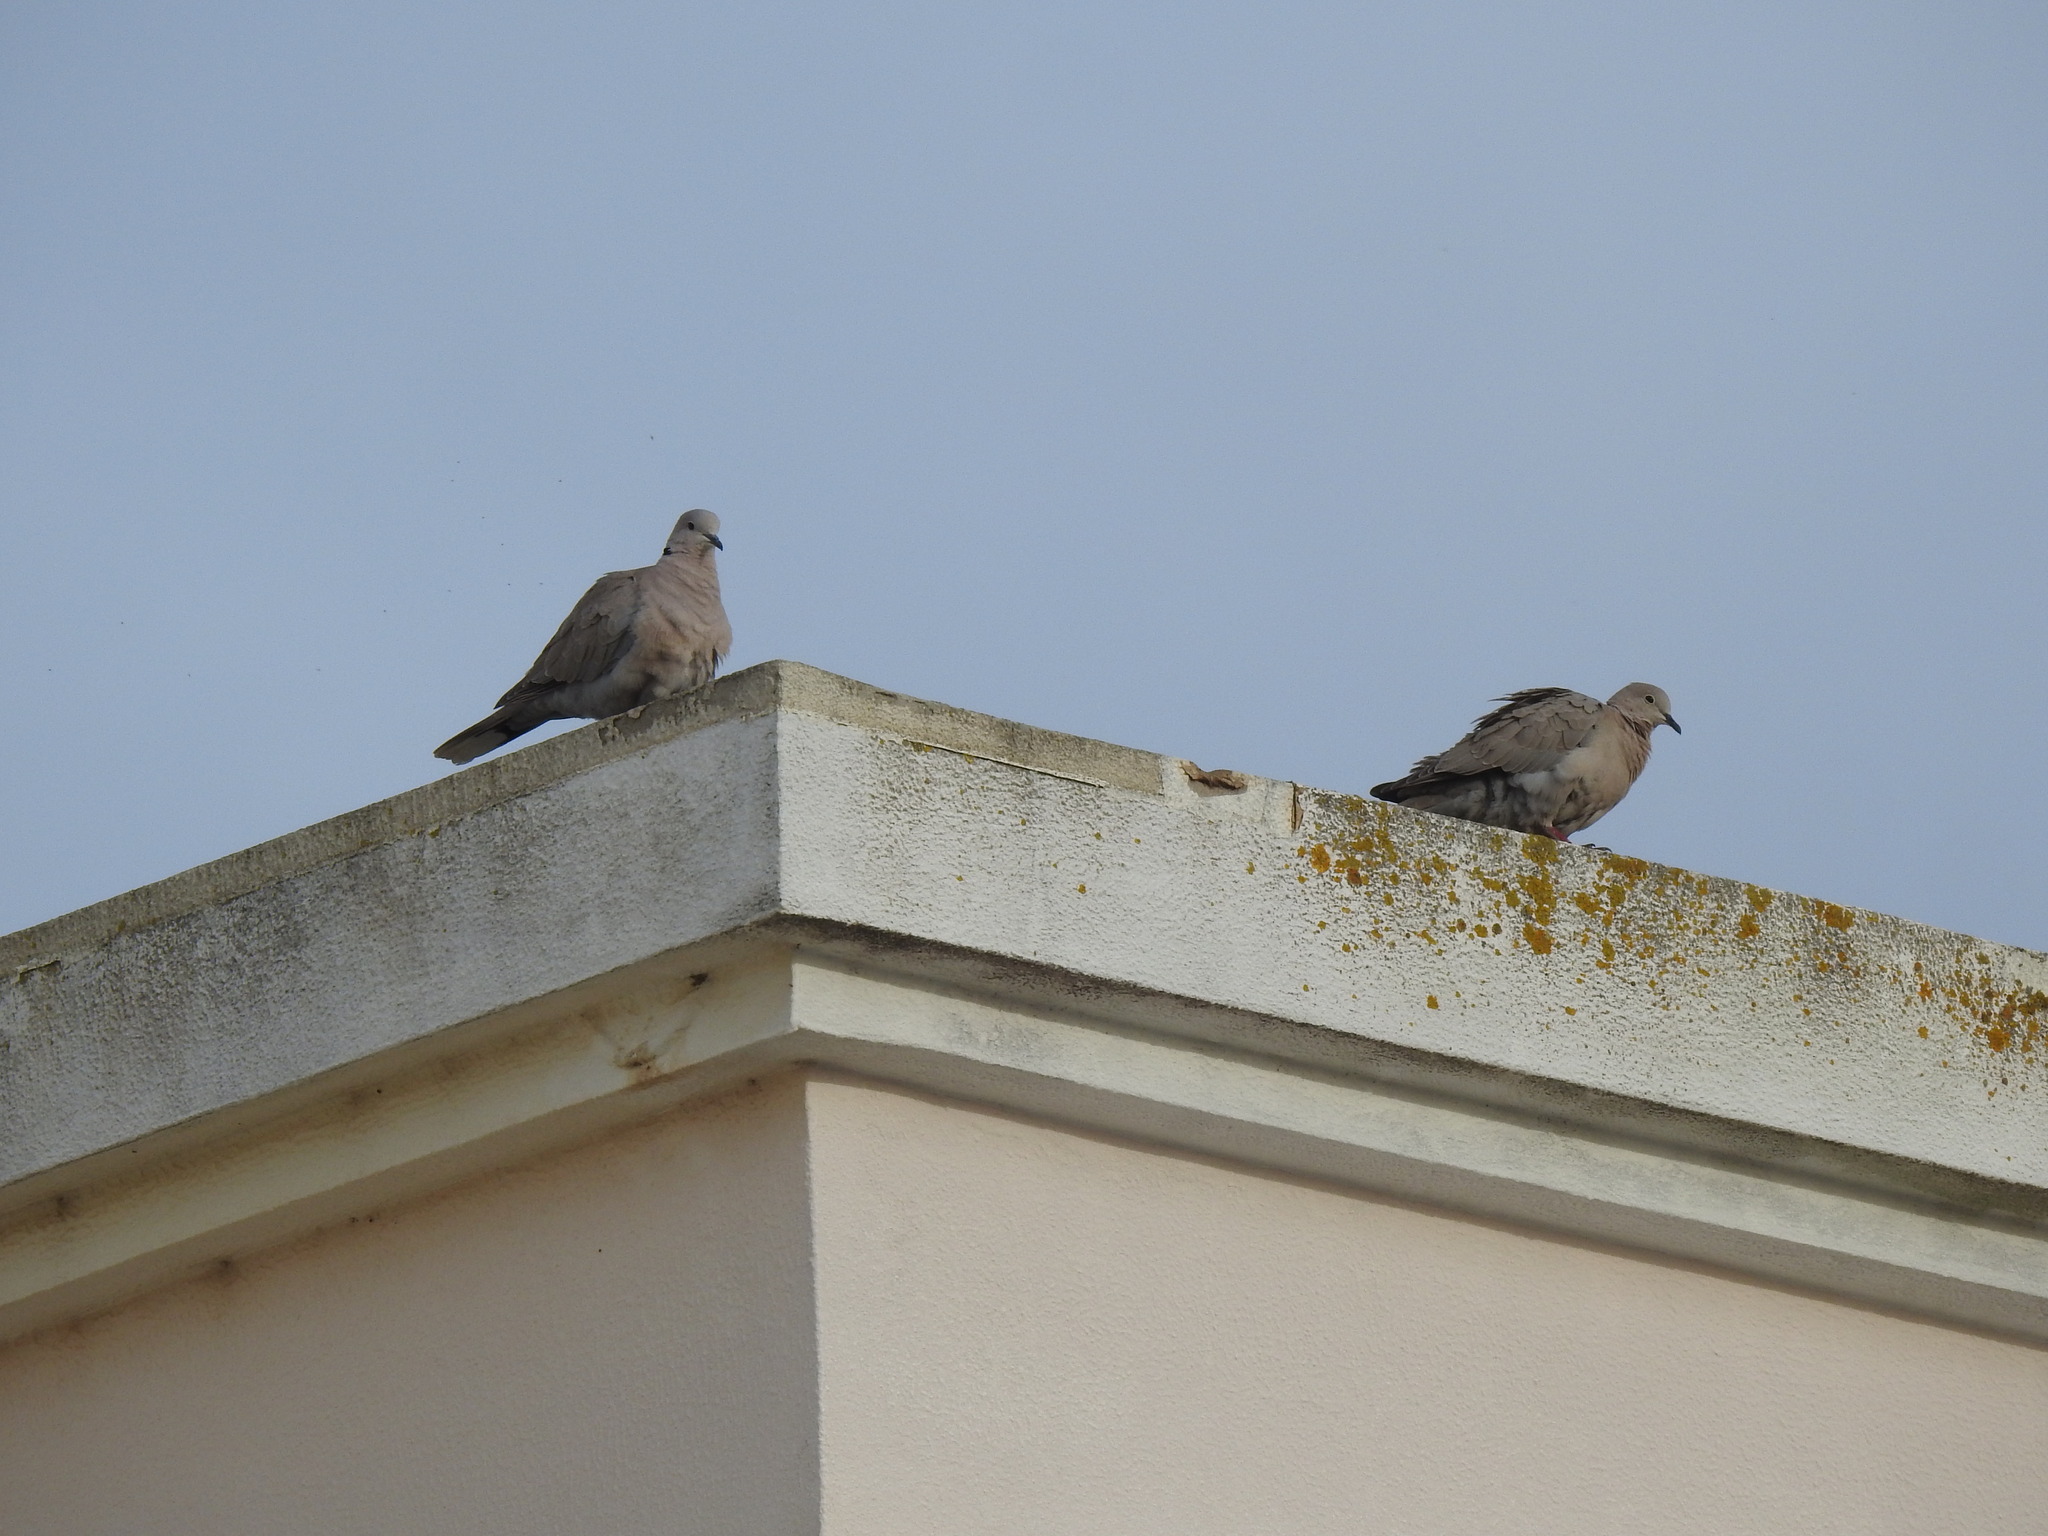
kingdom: Animalia
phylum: Chordata
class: Aves
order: Columbiformes
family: Columbidae
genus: Streptopelia
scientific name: Streptopelia decaocto
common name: Eurasian collared dove
